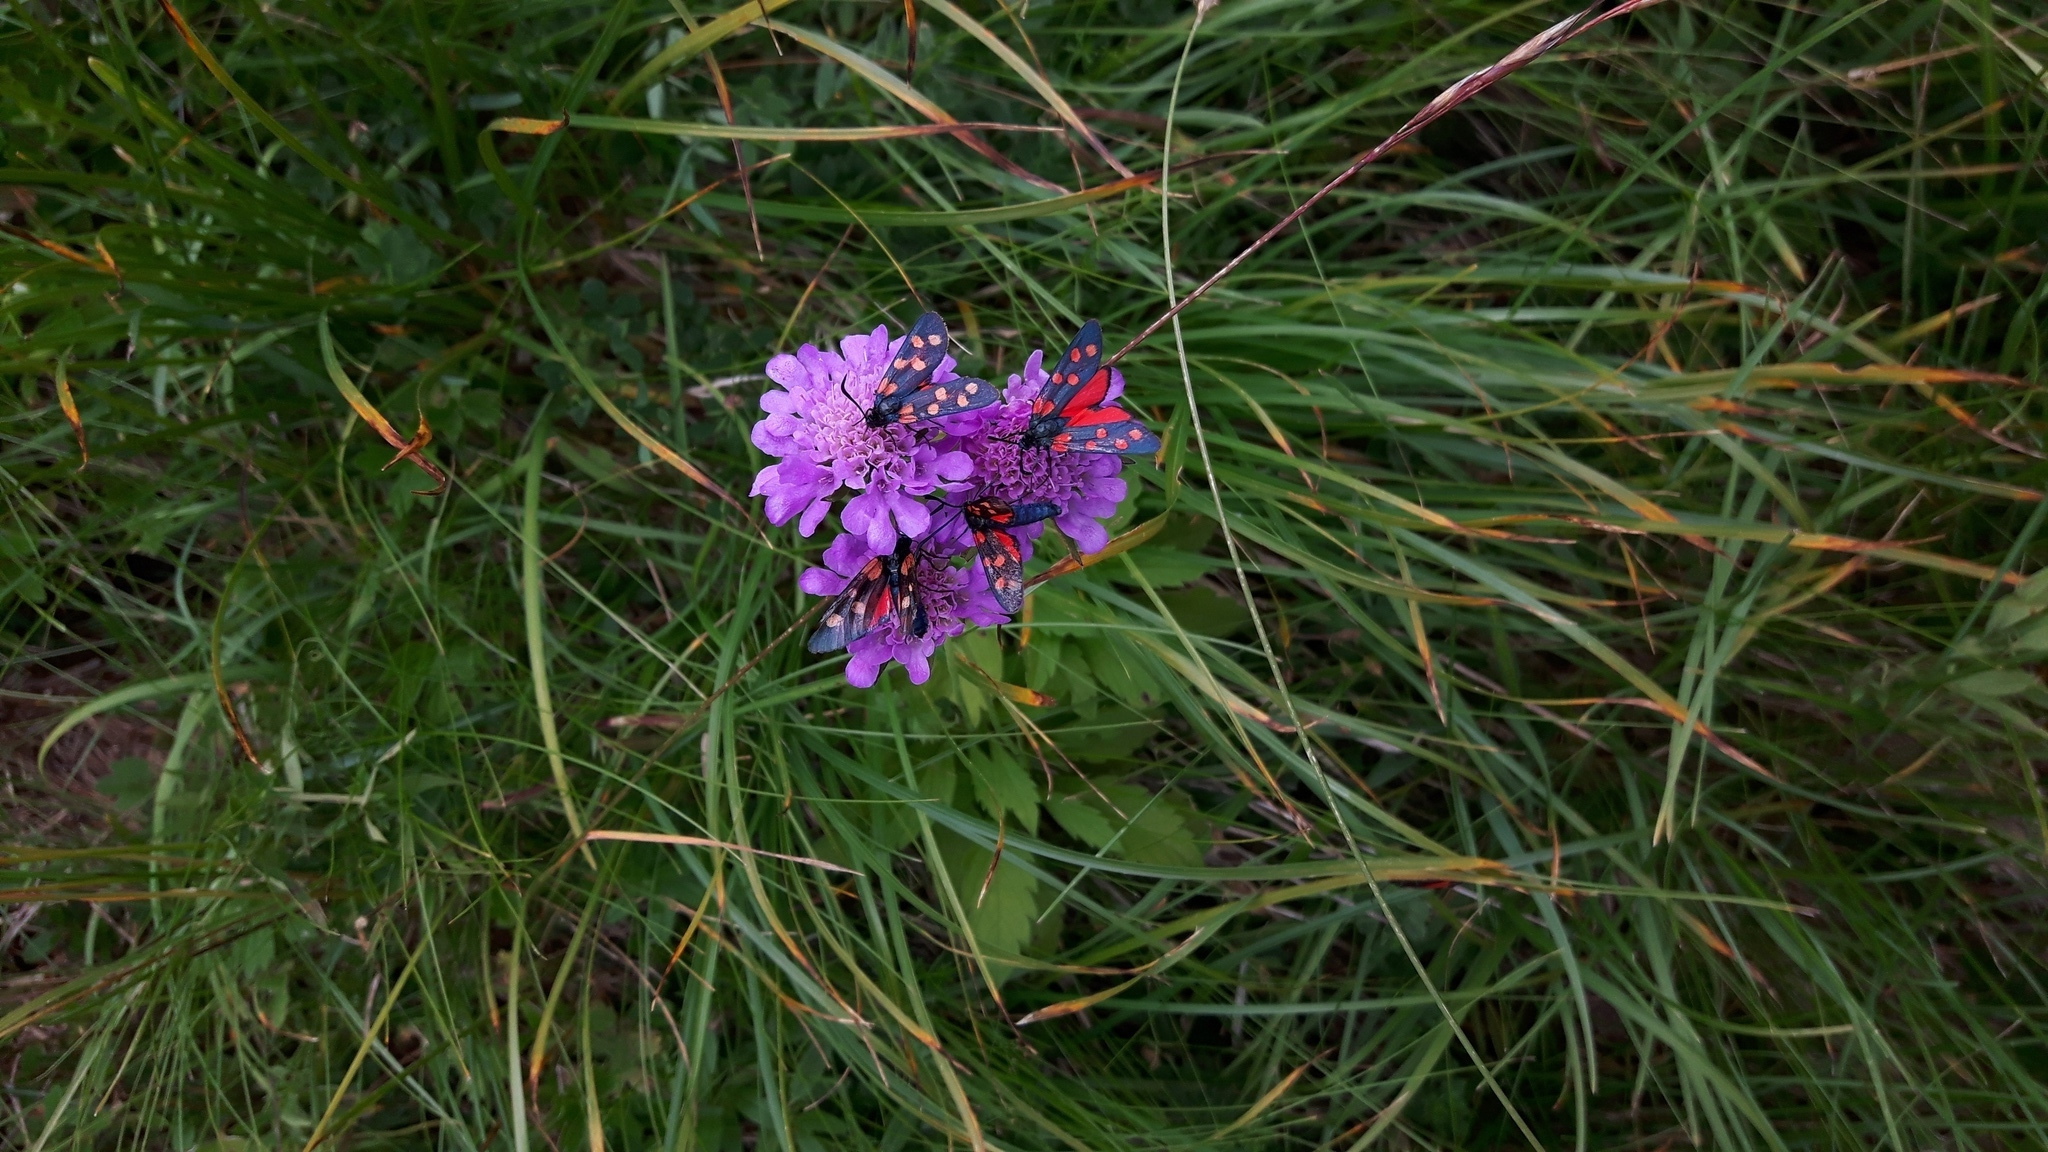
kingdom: Animalia
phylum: Arthropoda
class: Insecta
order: Lepidoptera
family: Zygaenidae
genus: Zygaena
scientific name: Zygaena transalpina
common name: Southern six spot burnet
